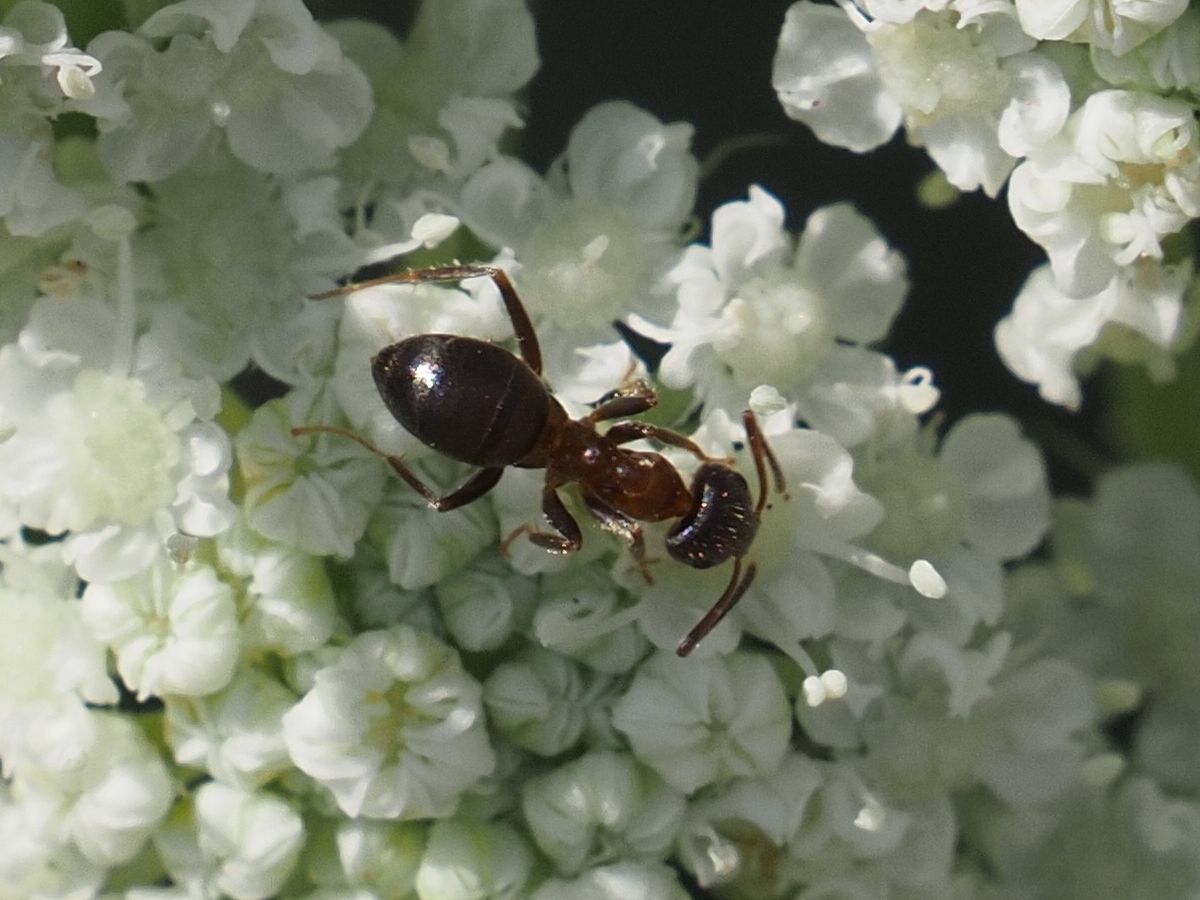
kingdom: Animalia
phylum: Arthropoda
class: Insecta
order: Hymenoptera
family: Formicidae
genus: Lasius
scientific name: Lasius emarginatus
